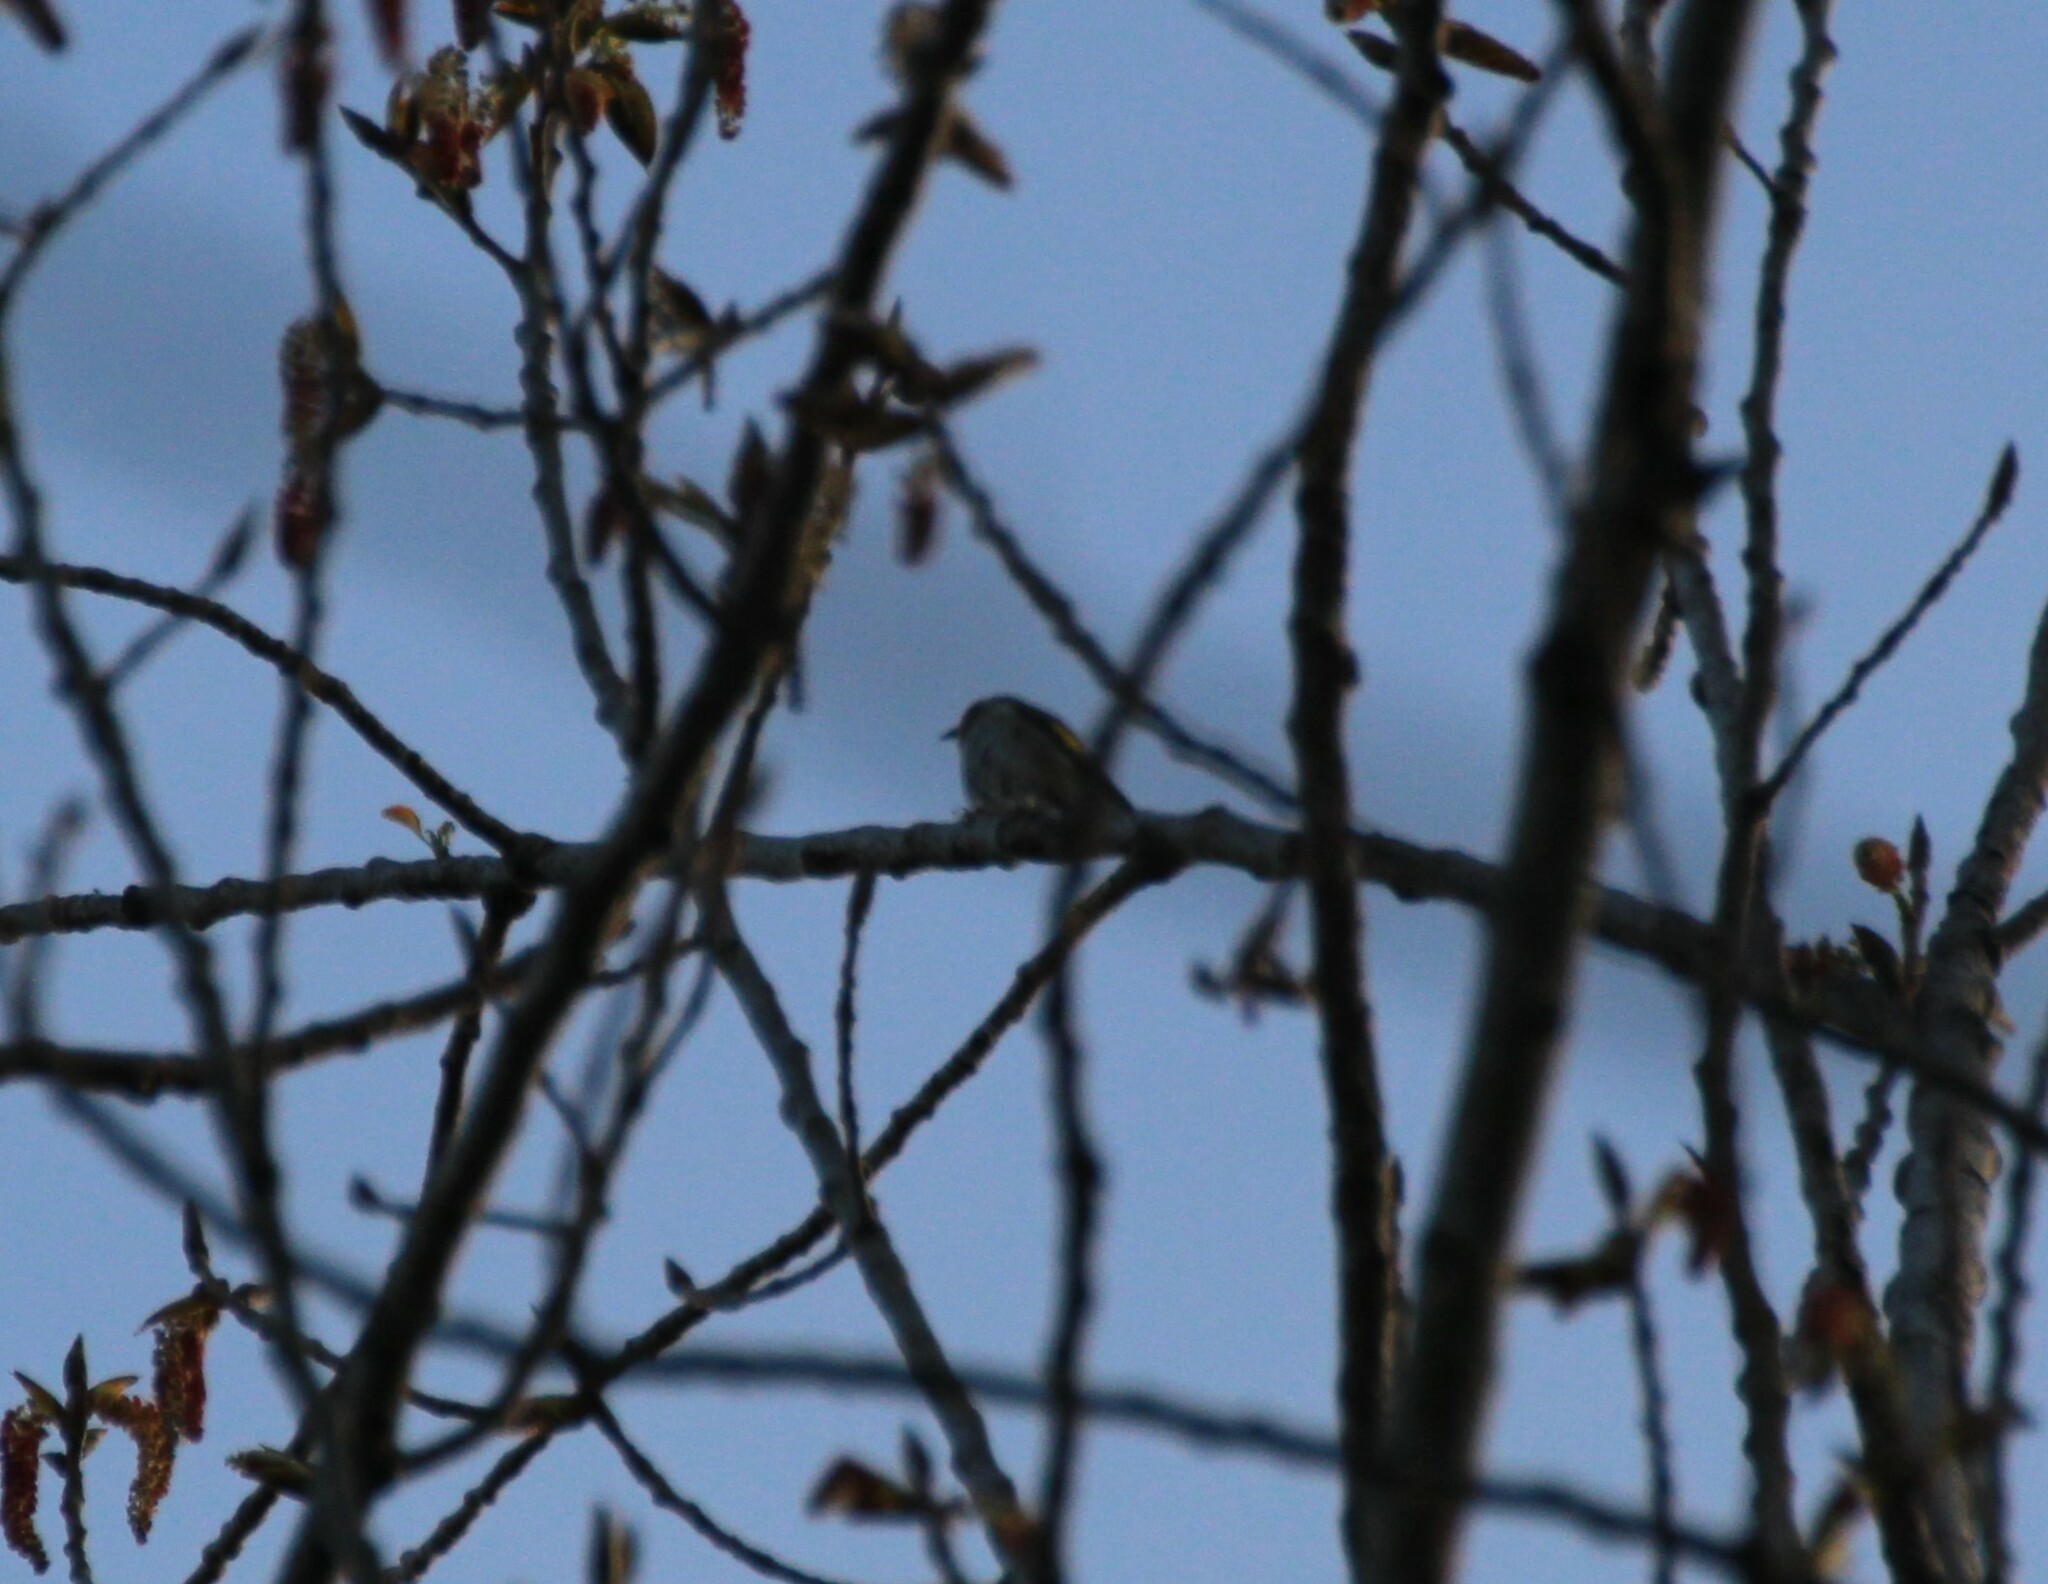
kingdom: Animalia
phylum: Chordata
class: Aves
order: Passeriformes
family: Fringillidae
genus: Carduelis
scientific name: Carduelis carduelis
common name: European goldfinch
